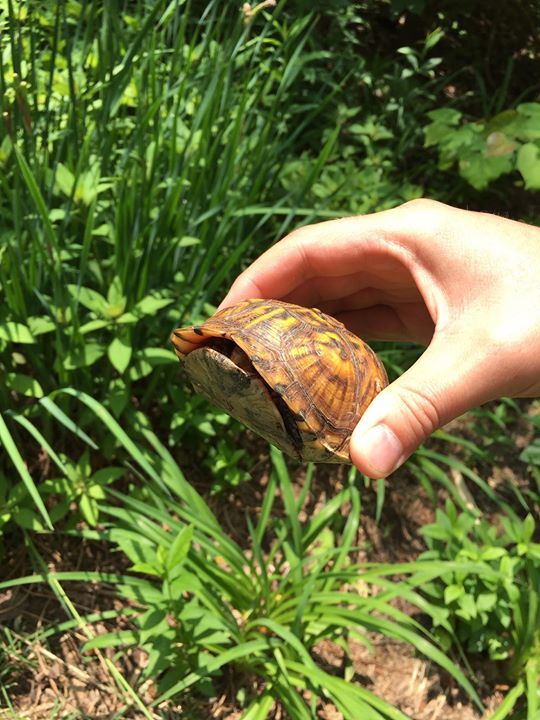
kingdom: Animalia
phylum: Chordata
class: Testudines
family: Emydidae
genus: Terrapene
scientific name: Terrapene carolina
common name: Common box turtle
